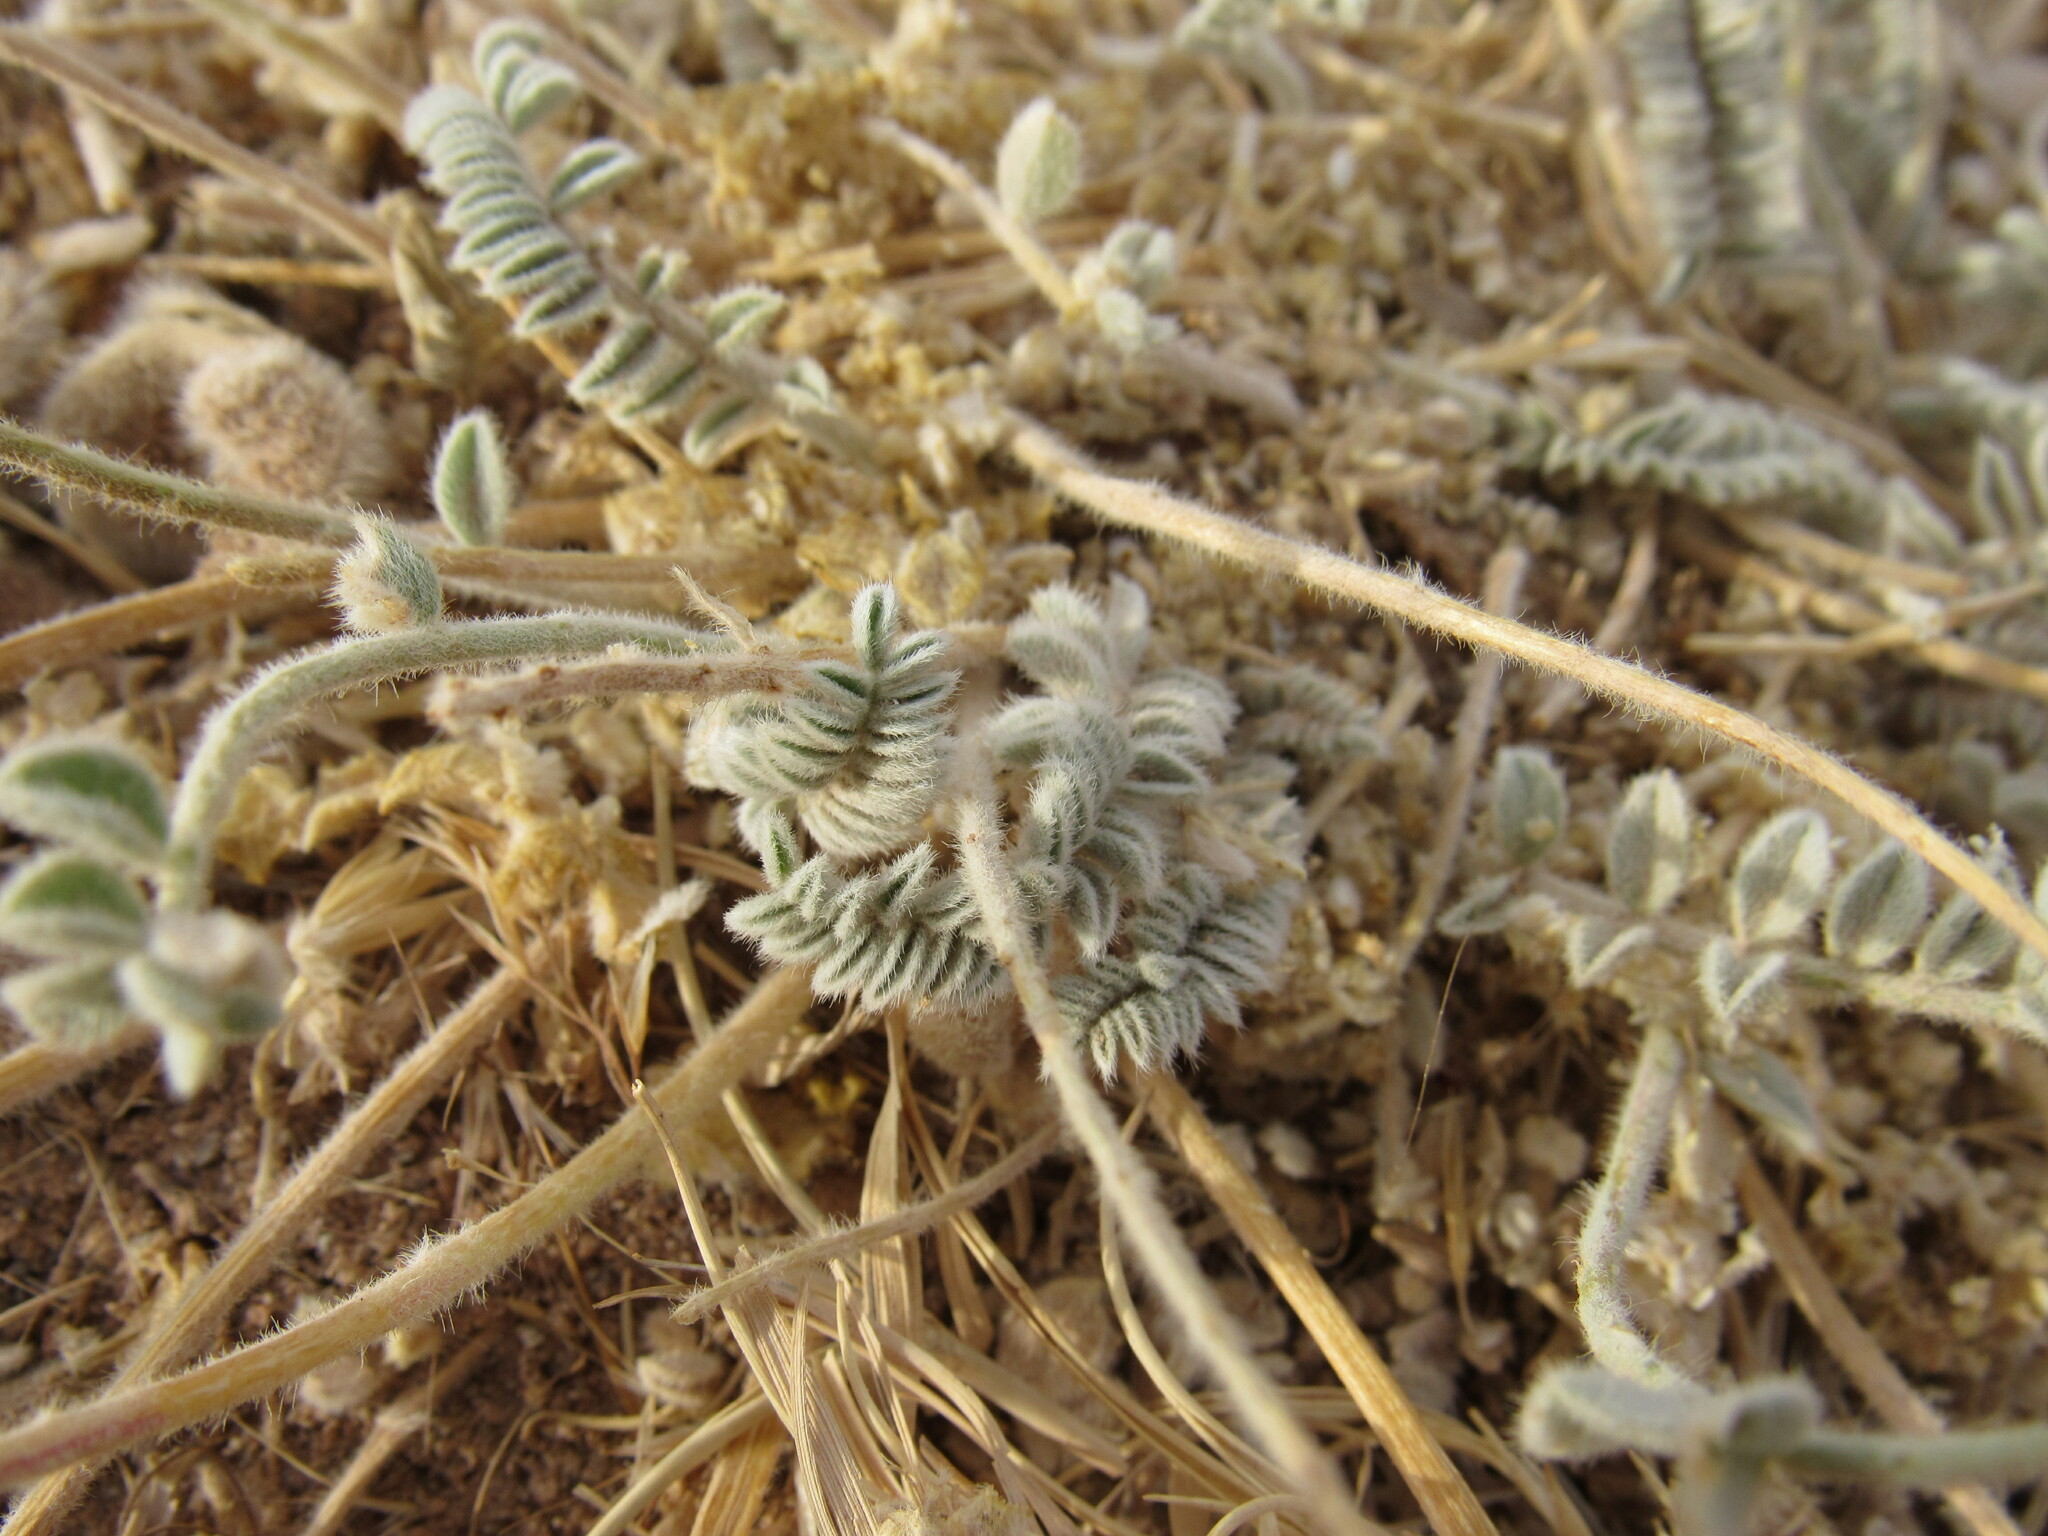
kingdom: Plantae
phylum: Tracheophyta
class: Magnoliopsida
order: Fabales
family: Fabaceae
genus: Astragalus
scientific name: Astragalus mollissimus
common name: Woolly locoweed
